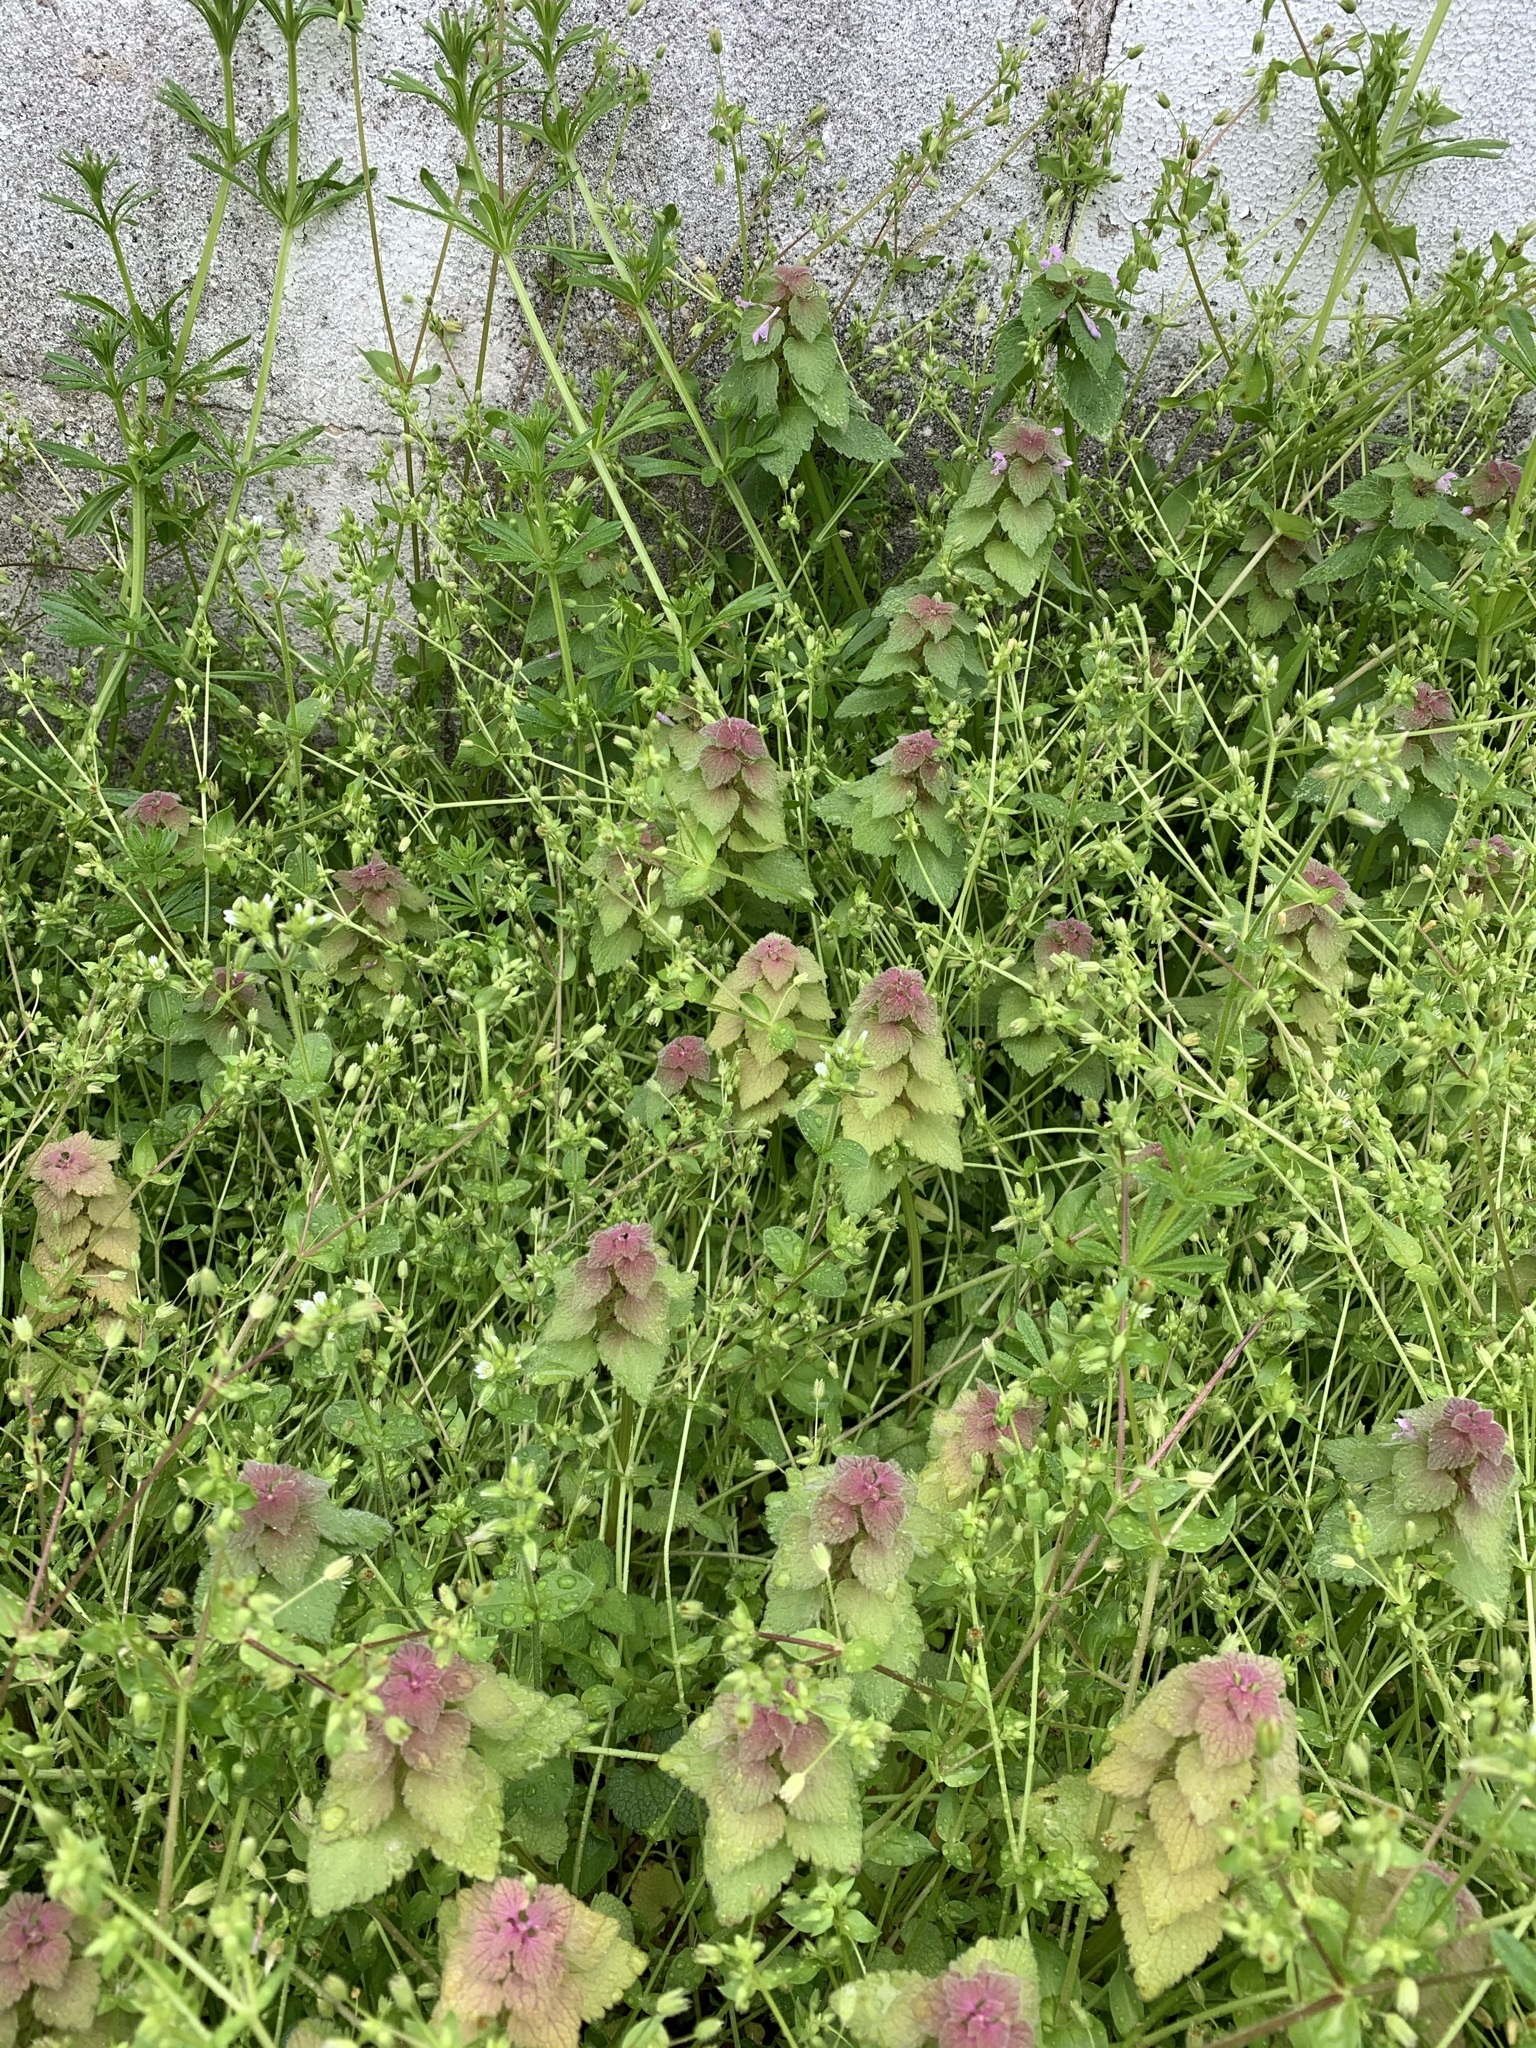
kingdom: Plantae
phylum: Tracheophyta
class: Magnoliopsida
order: Lamiales
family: Lamiaceae
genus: Lamium
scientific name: Lamium purpureum
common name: Red dead-nettle
